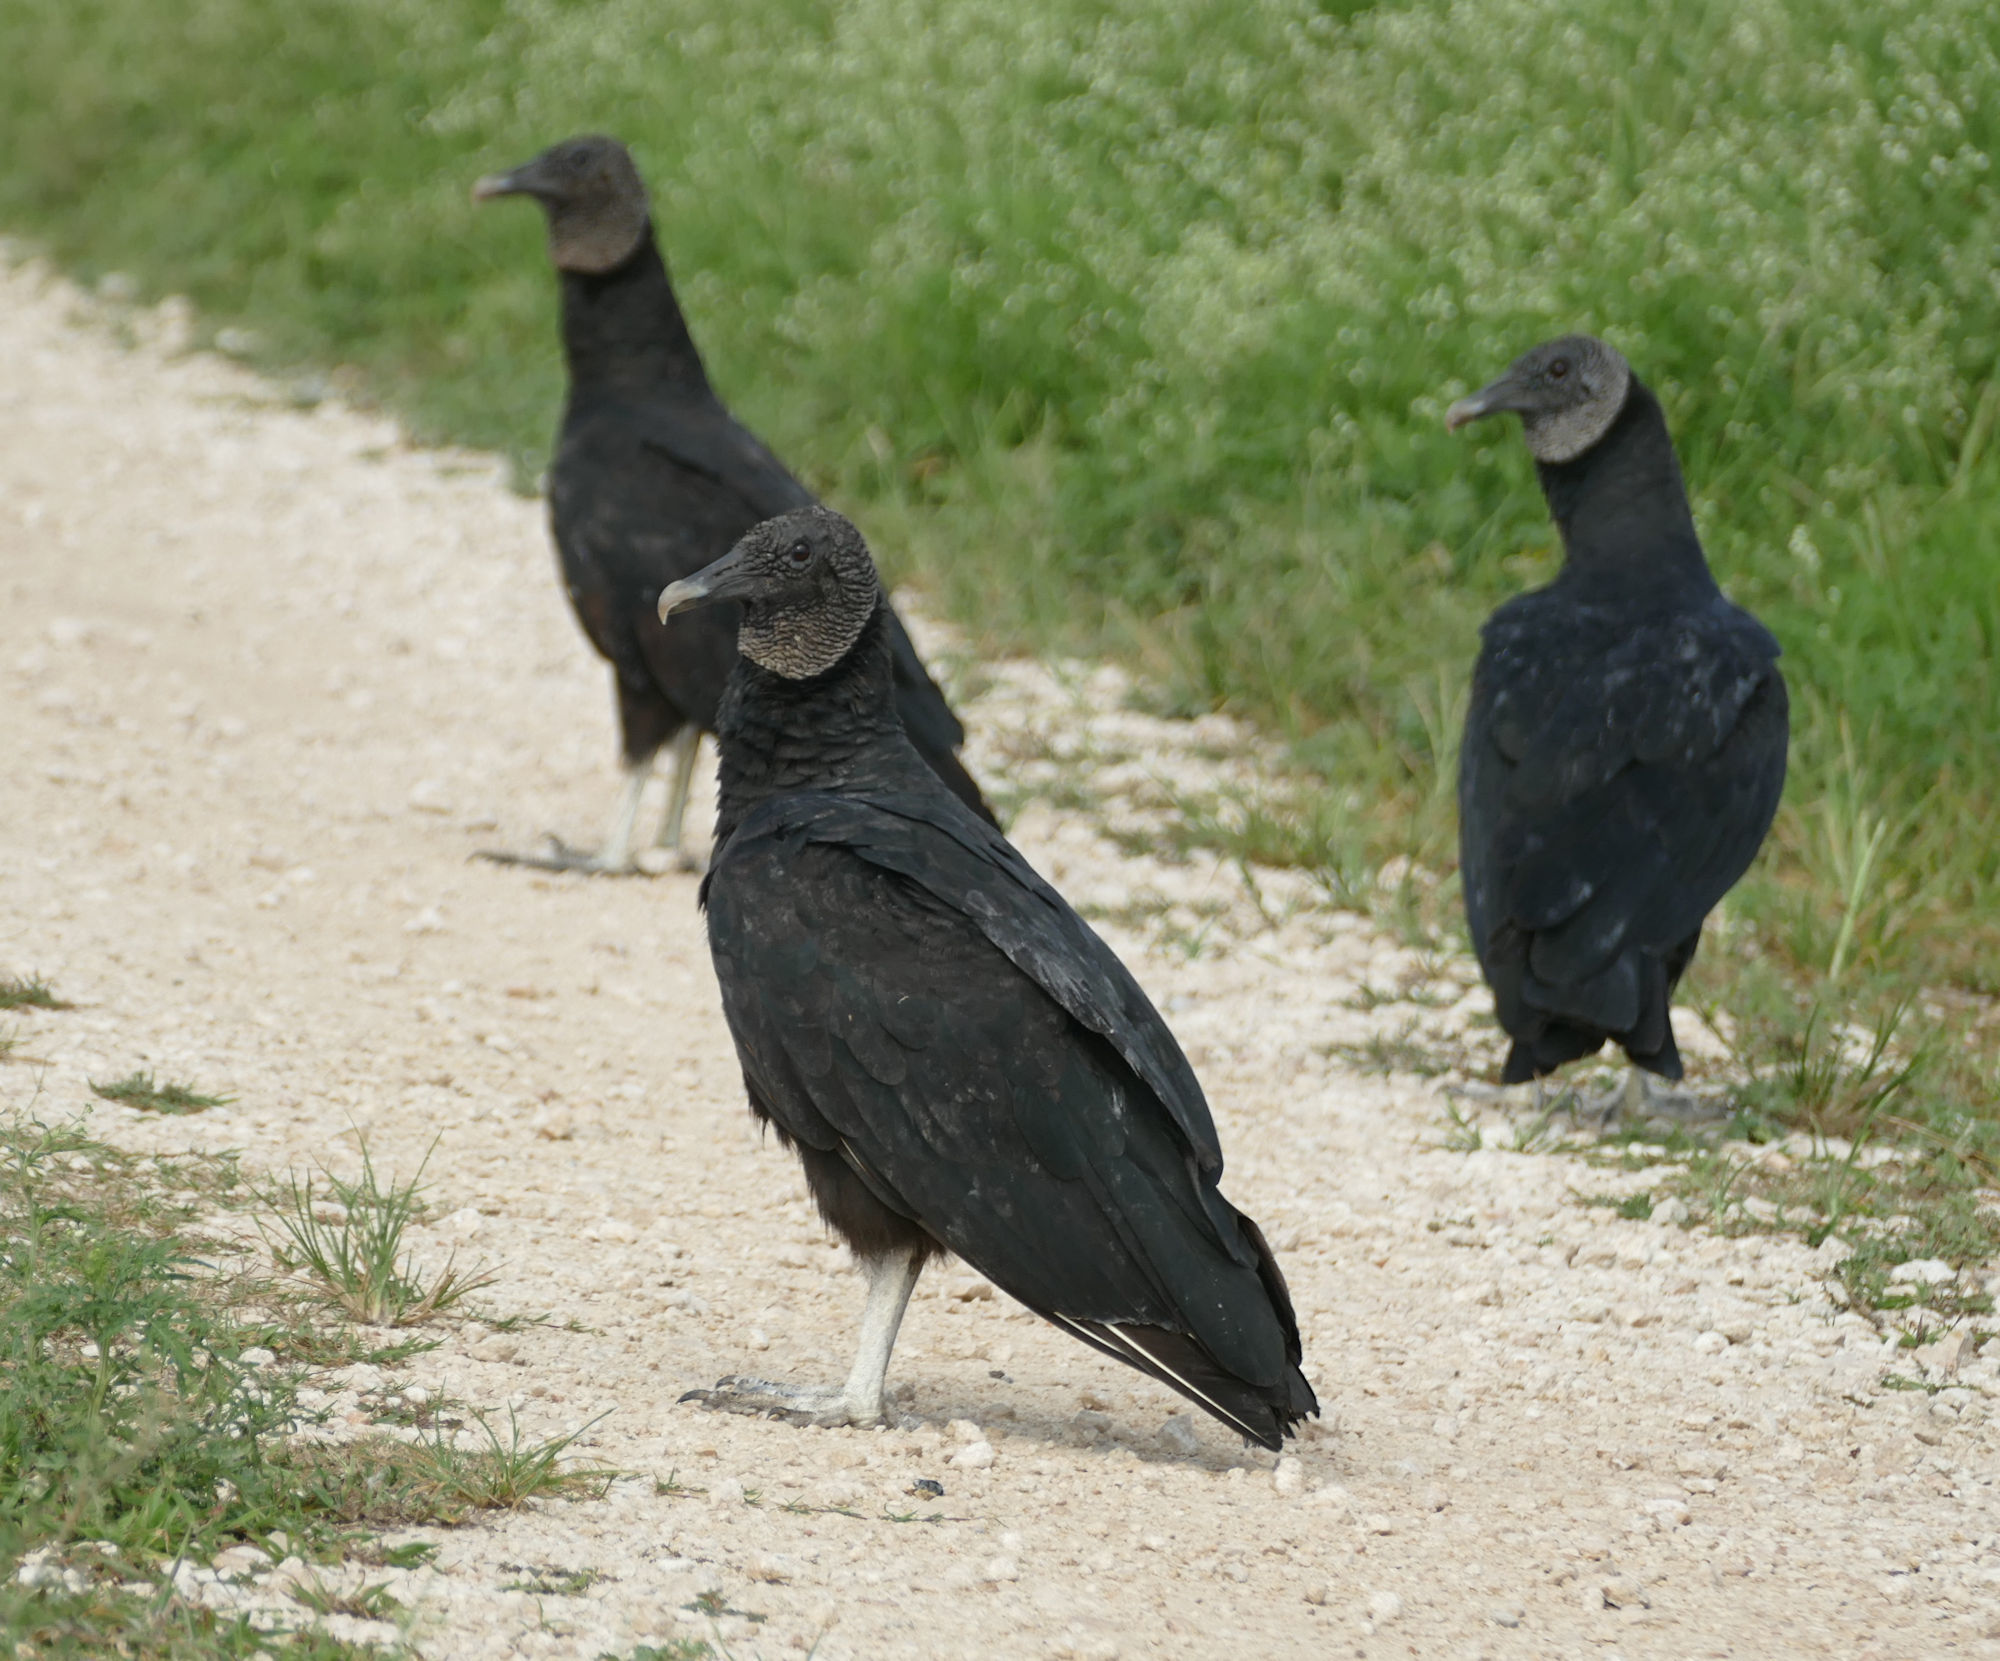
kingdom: Animalia
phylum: Chordata
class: Aves
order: Accipitriformes
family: Cathartidae
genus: Coragyps
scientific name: Coragyps atratus
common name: Black vulture
